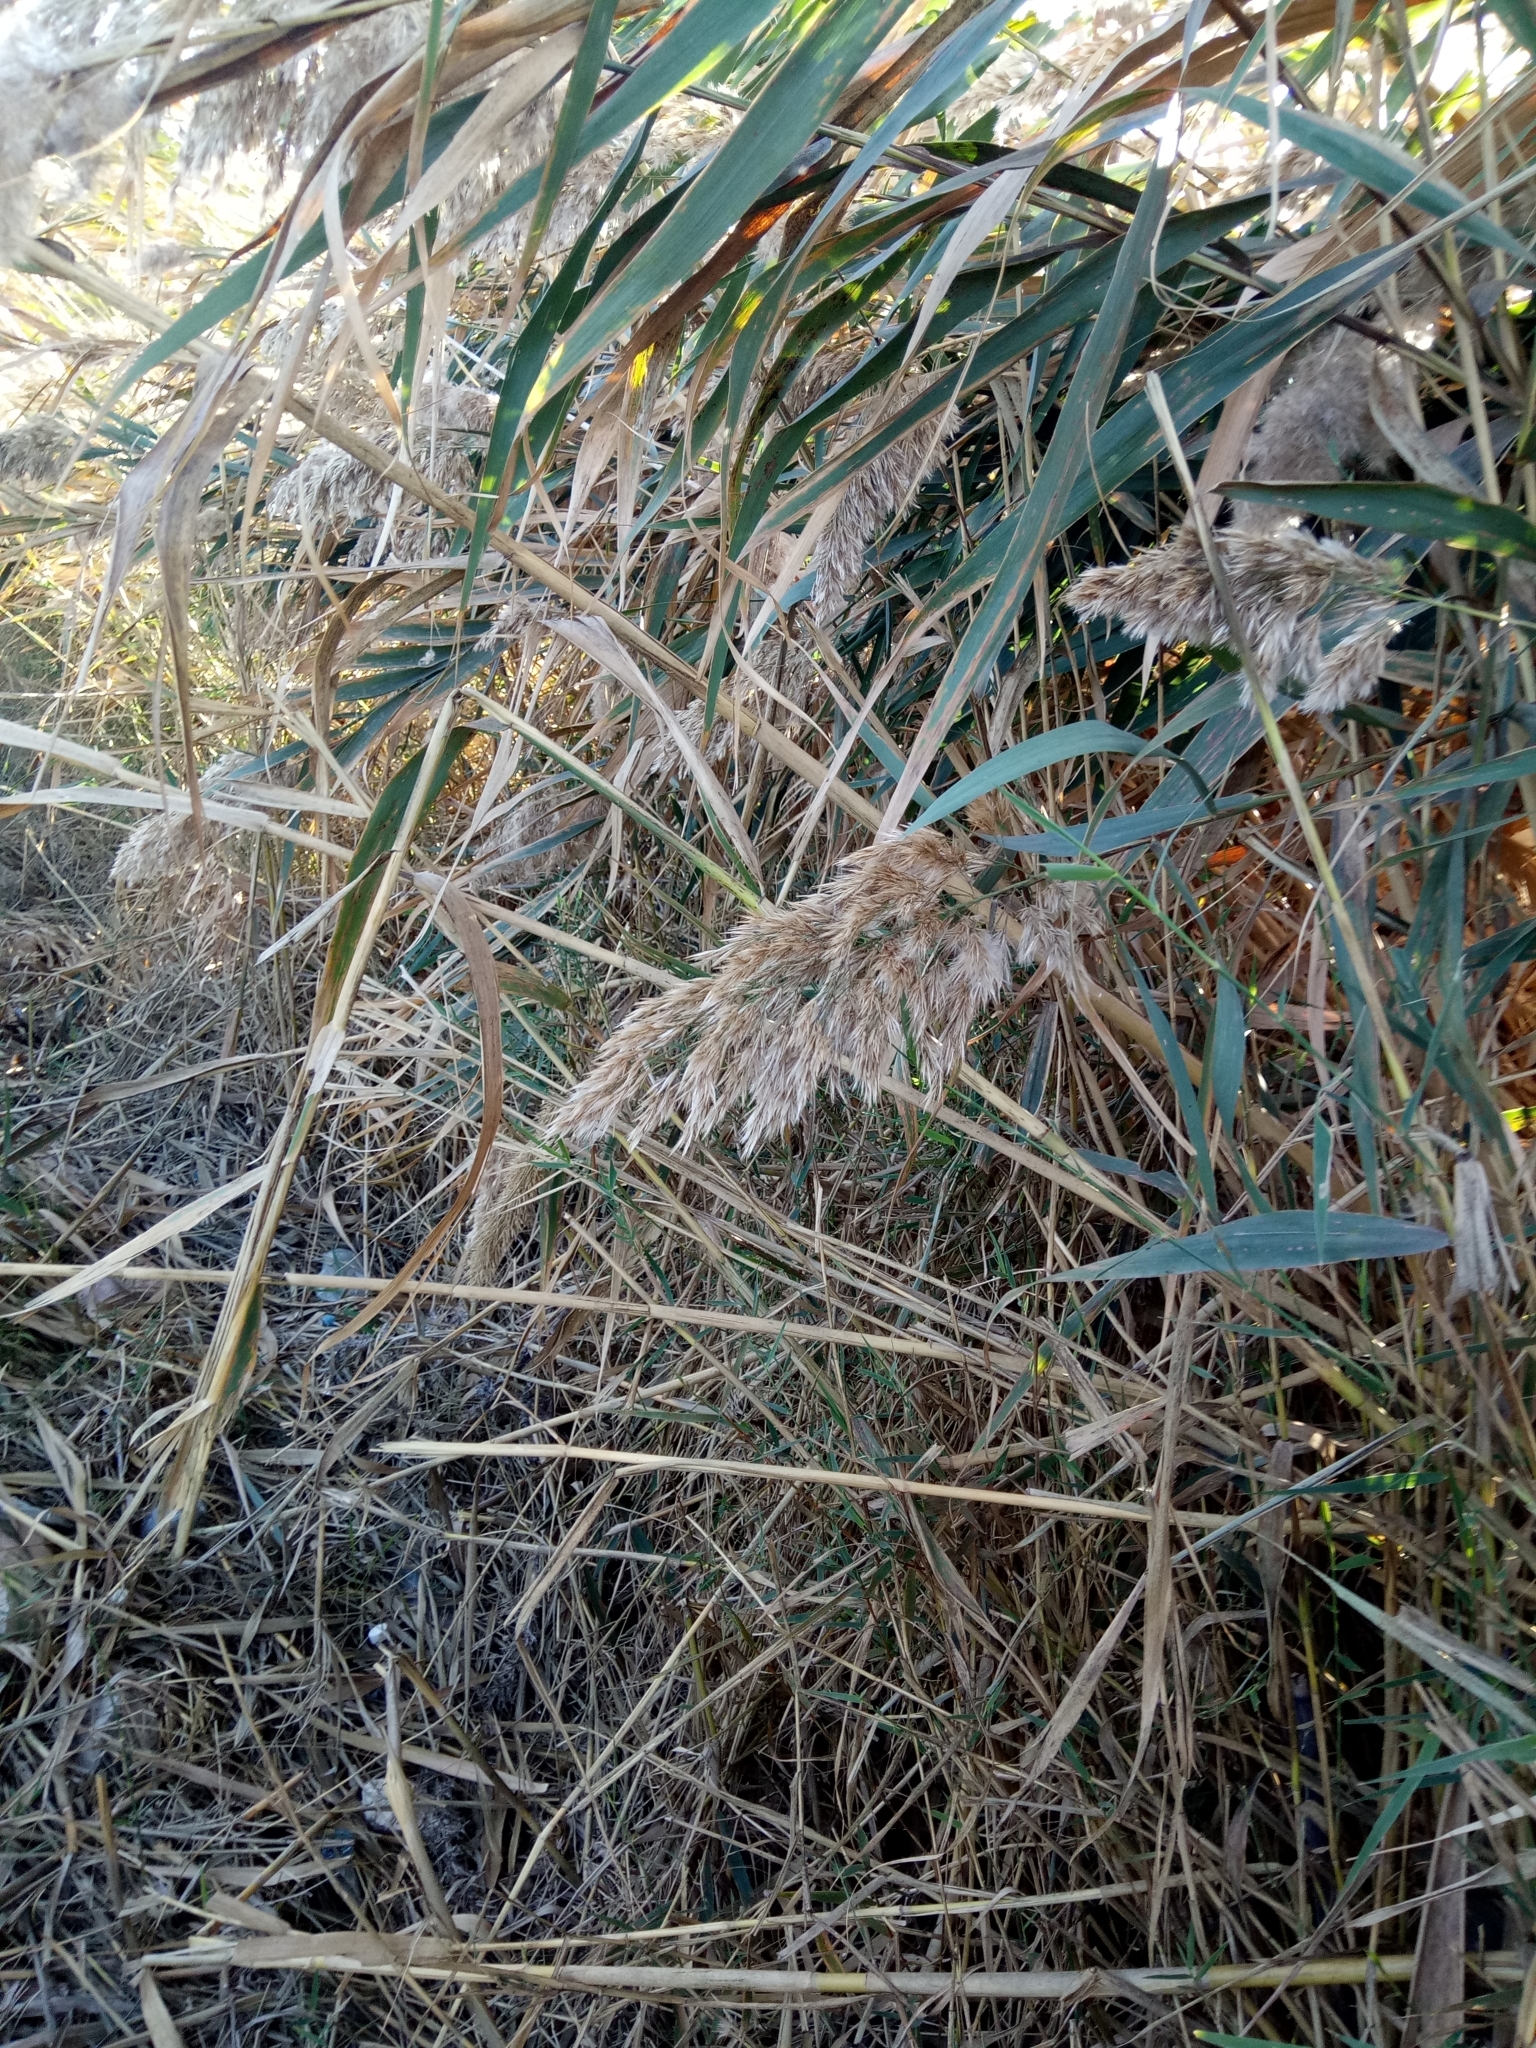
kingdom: Plantae
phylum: Tracheophyta
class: Liliopsida
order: Poales
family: Poaceae
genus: Phragmites
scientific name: Phragmites australis
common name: Common reed
